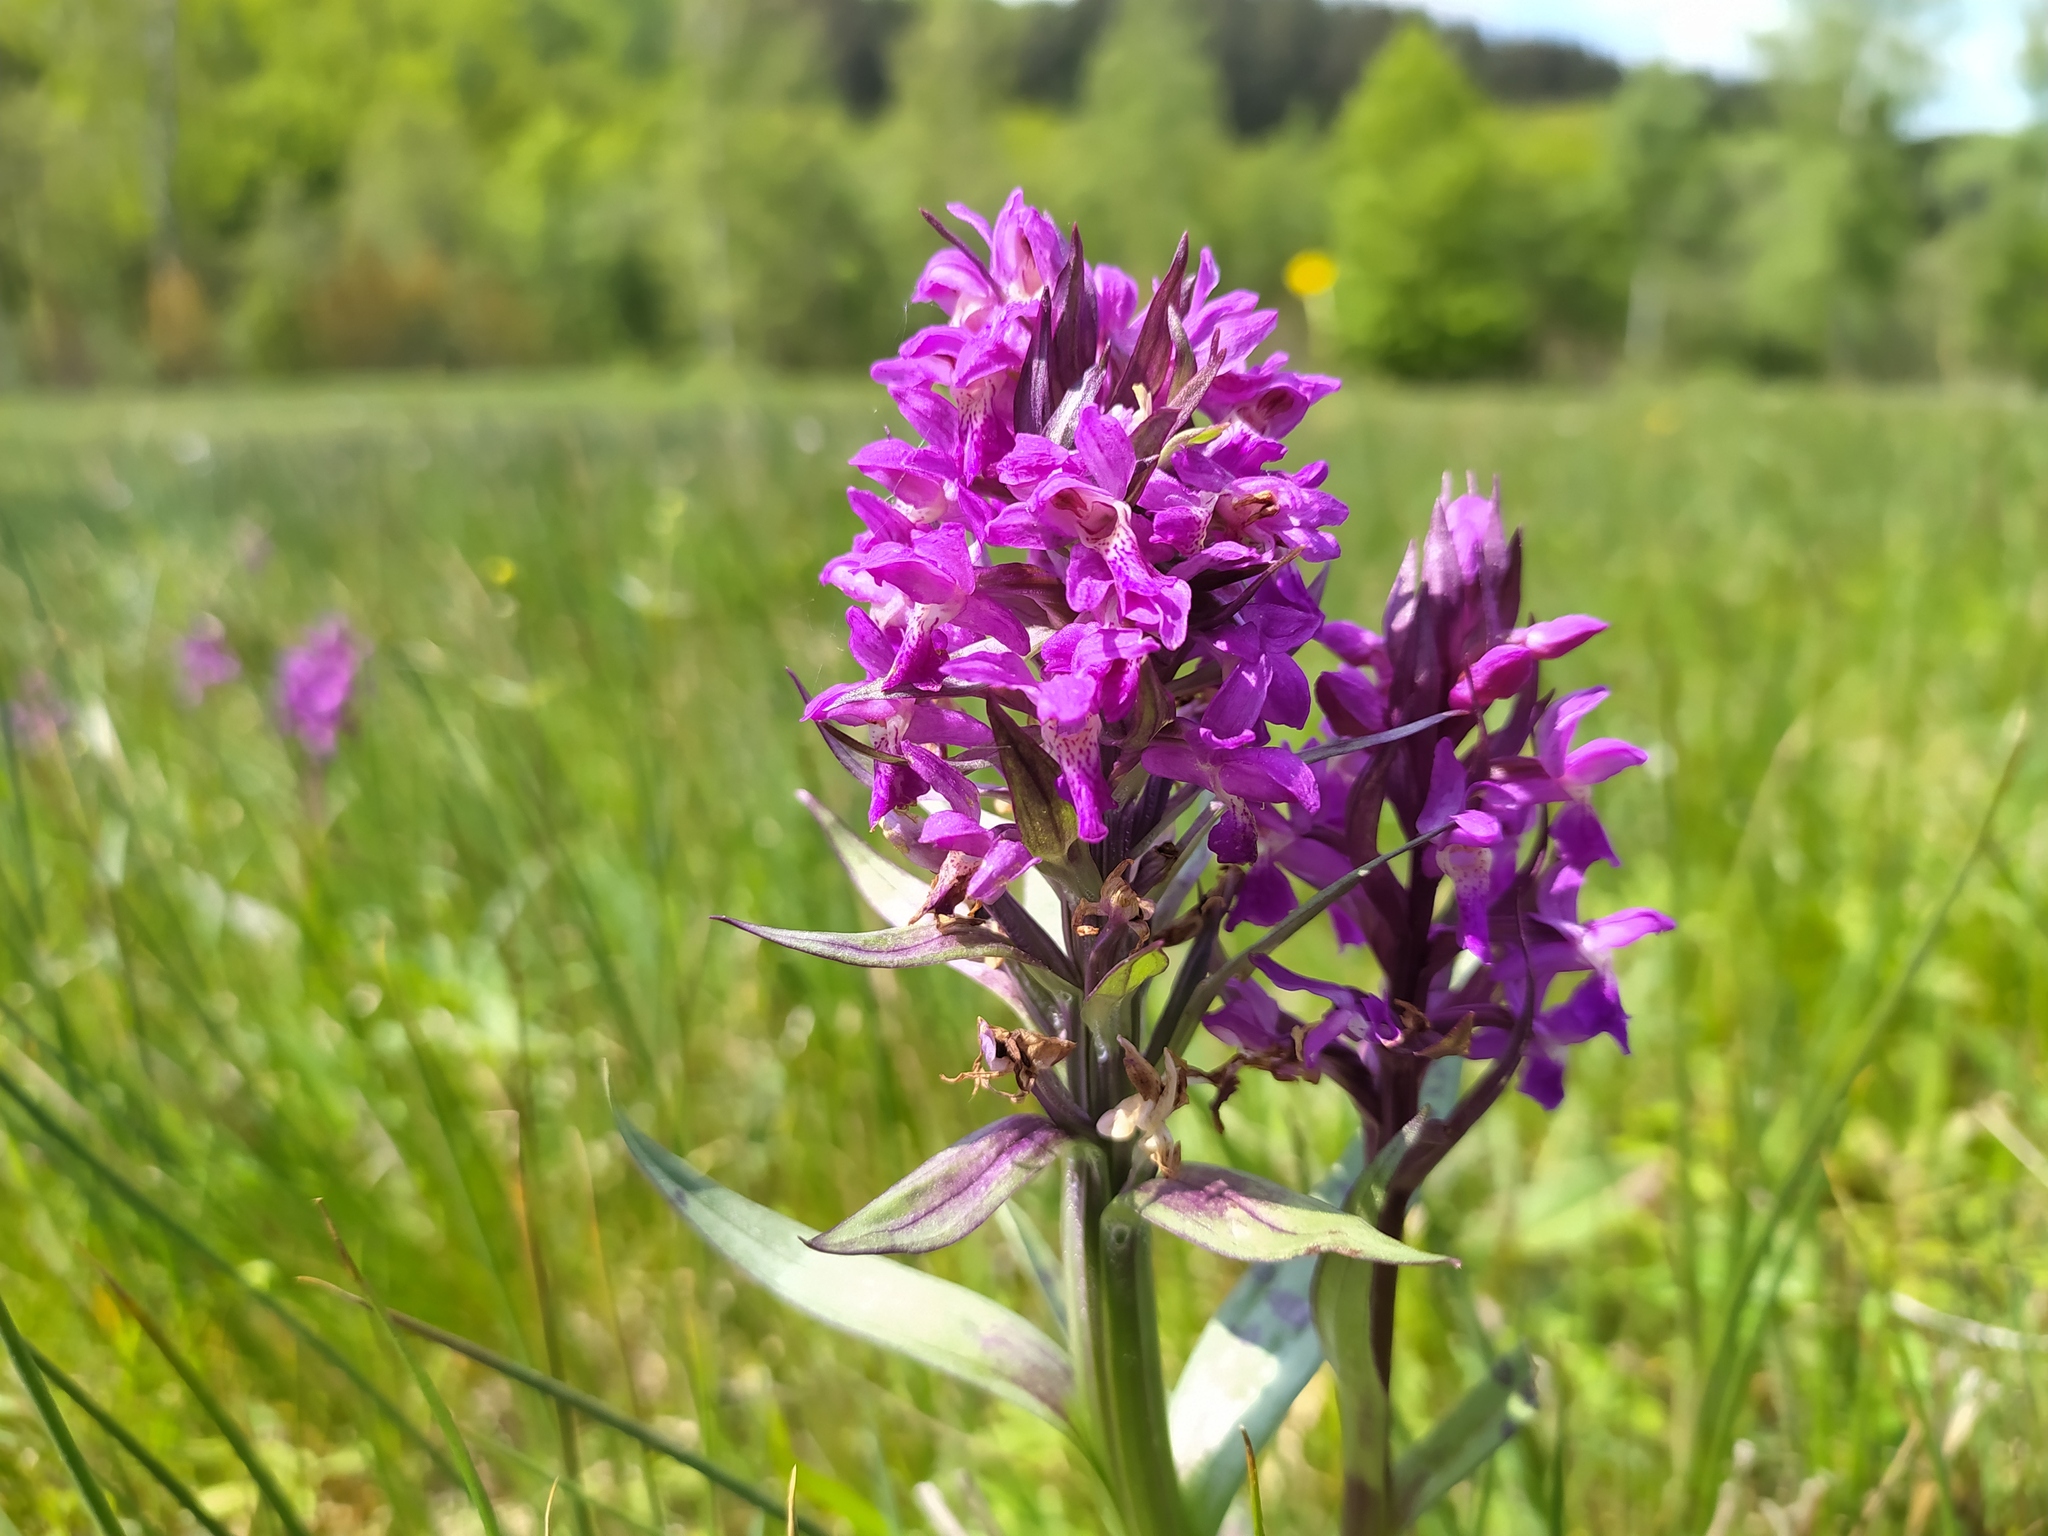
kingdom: Plantae
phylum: Tracheophyta
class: Liliopsida
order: Asparagales
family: Orchidaceae
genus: Dactylorhiza
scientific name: Dactylorhiza majalis
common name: Marsh orchid
